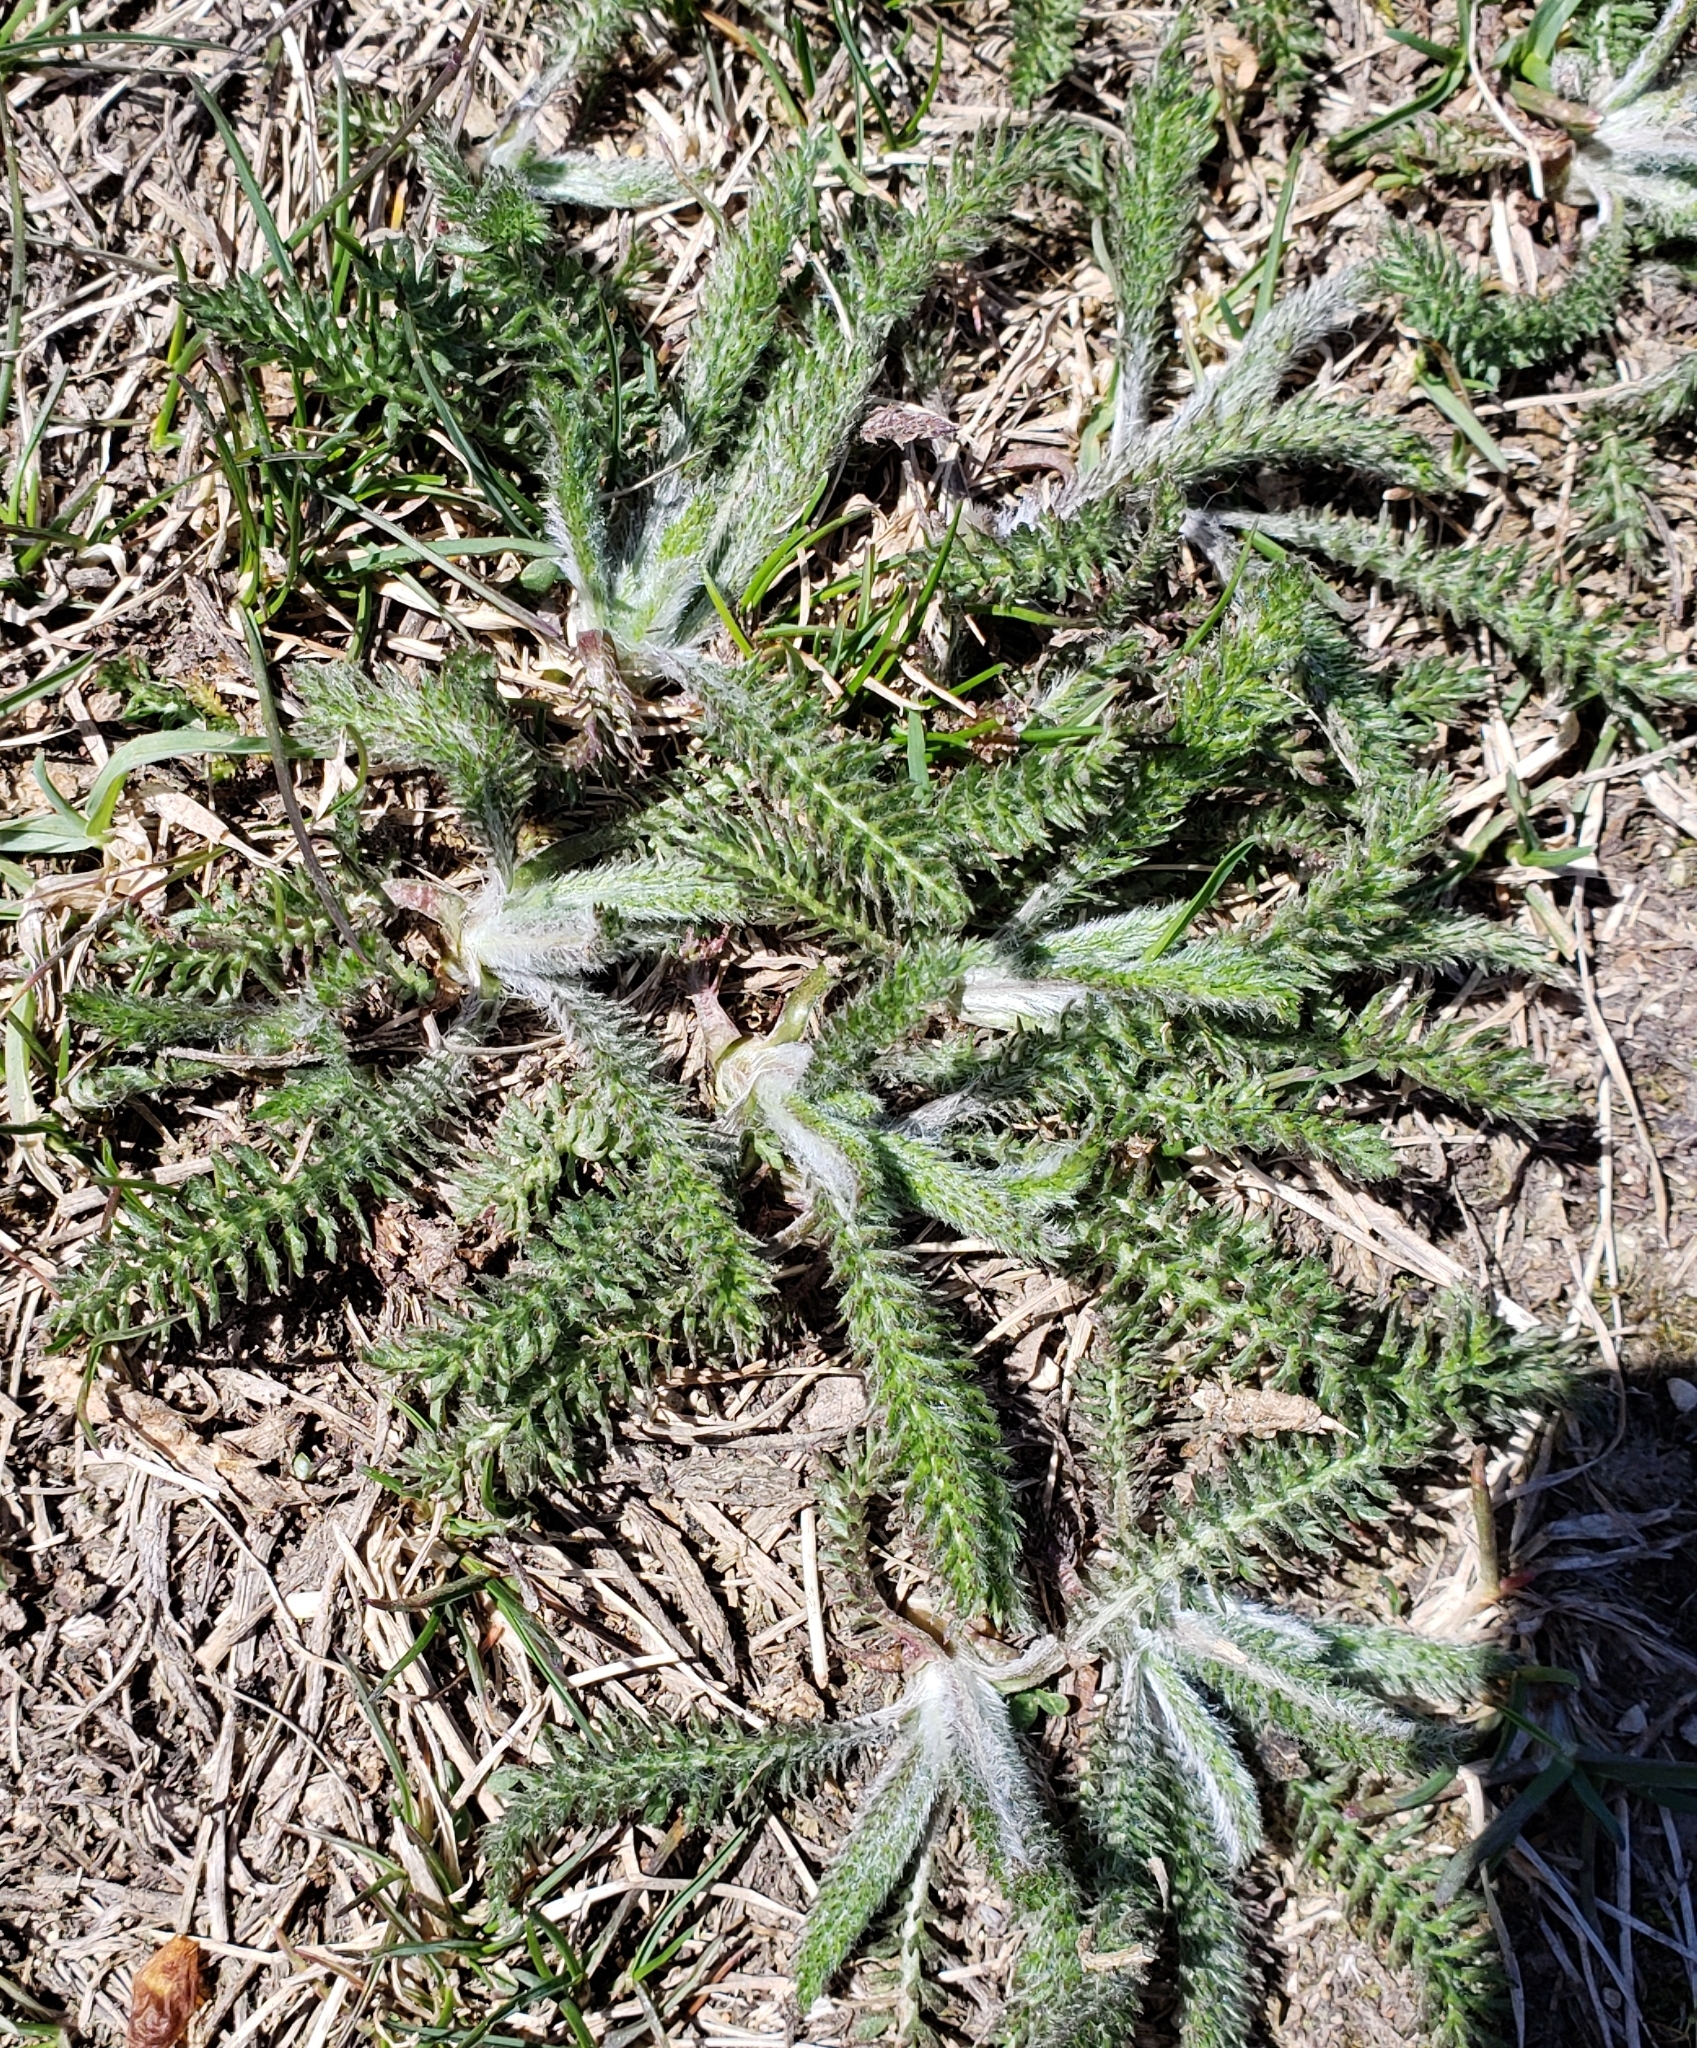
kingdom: Plantae
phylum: Tracheophyta
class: Magnoliopsida
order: Asterales
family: Asteraceae
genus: Achillea
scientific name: Achillea millefolium
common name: Yarrow
